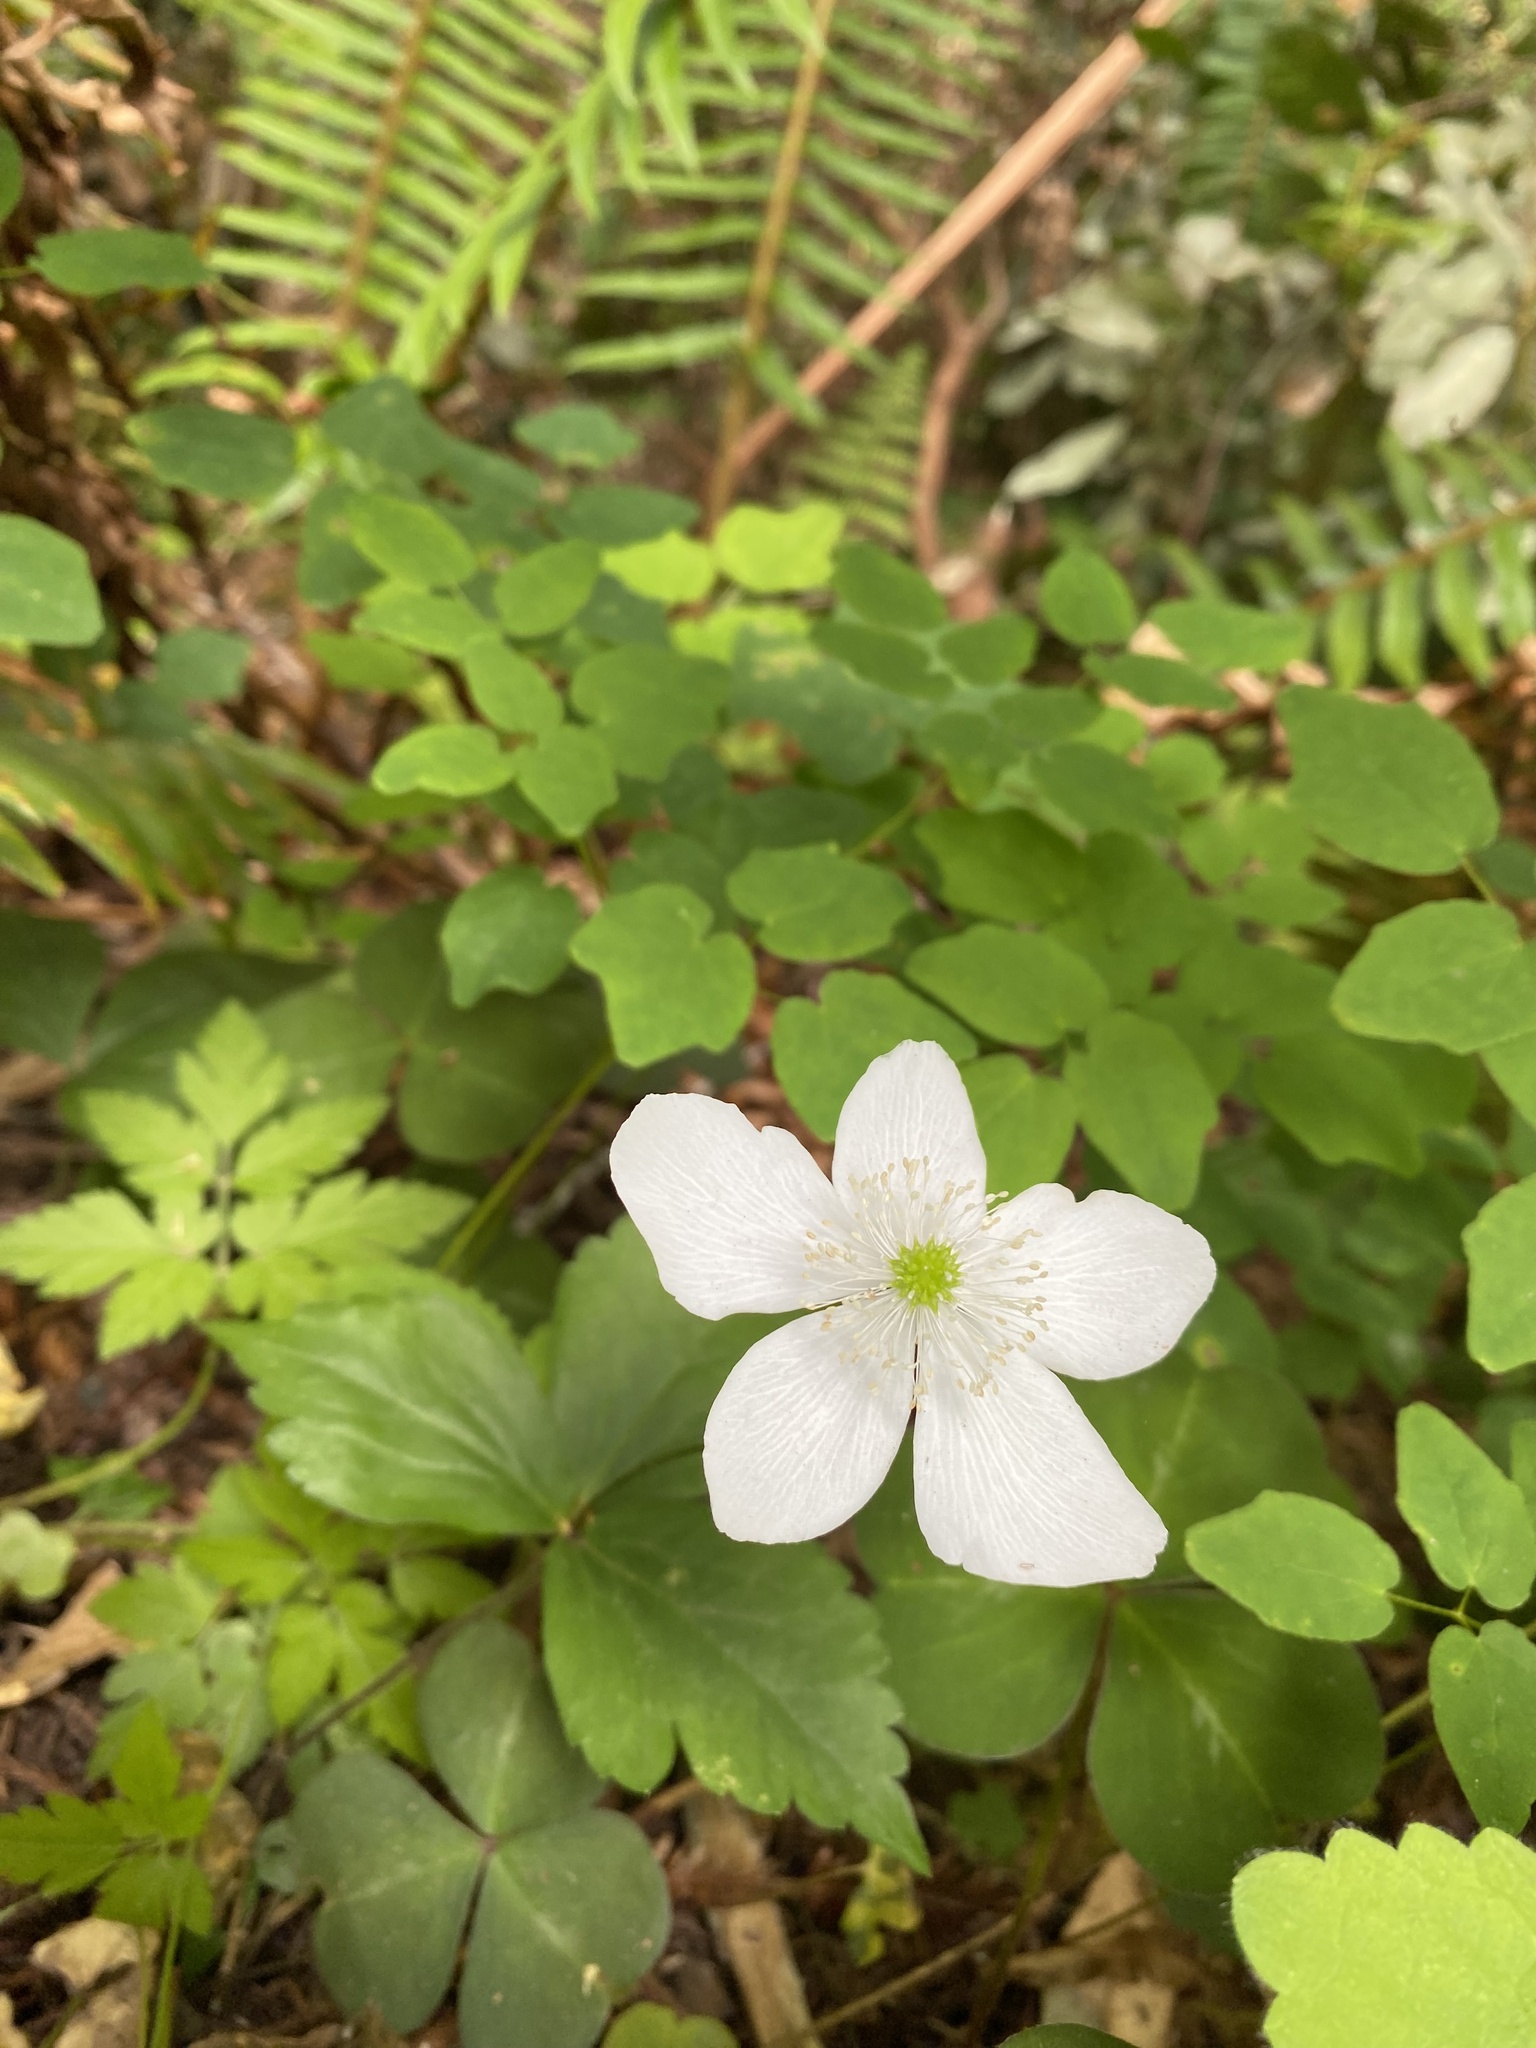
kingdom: Plantae
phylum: Tracheophyta
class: Magnoliopsida
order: Ranunculales
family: Ranunculaceae
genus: Anemonastrum
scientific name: Anemonastrum deltoideum
